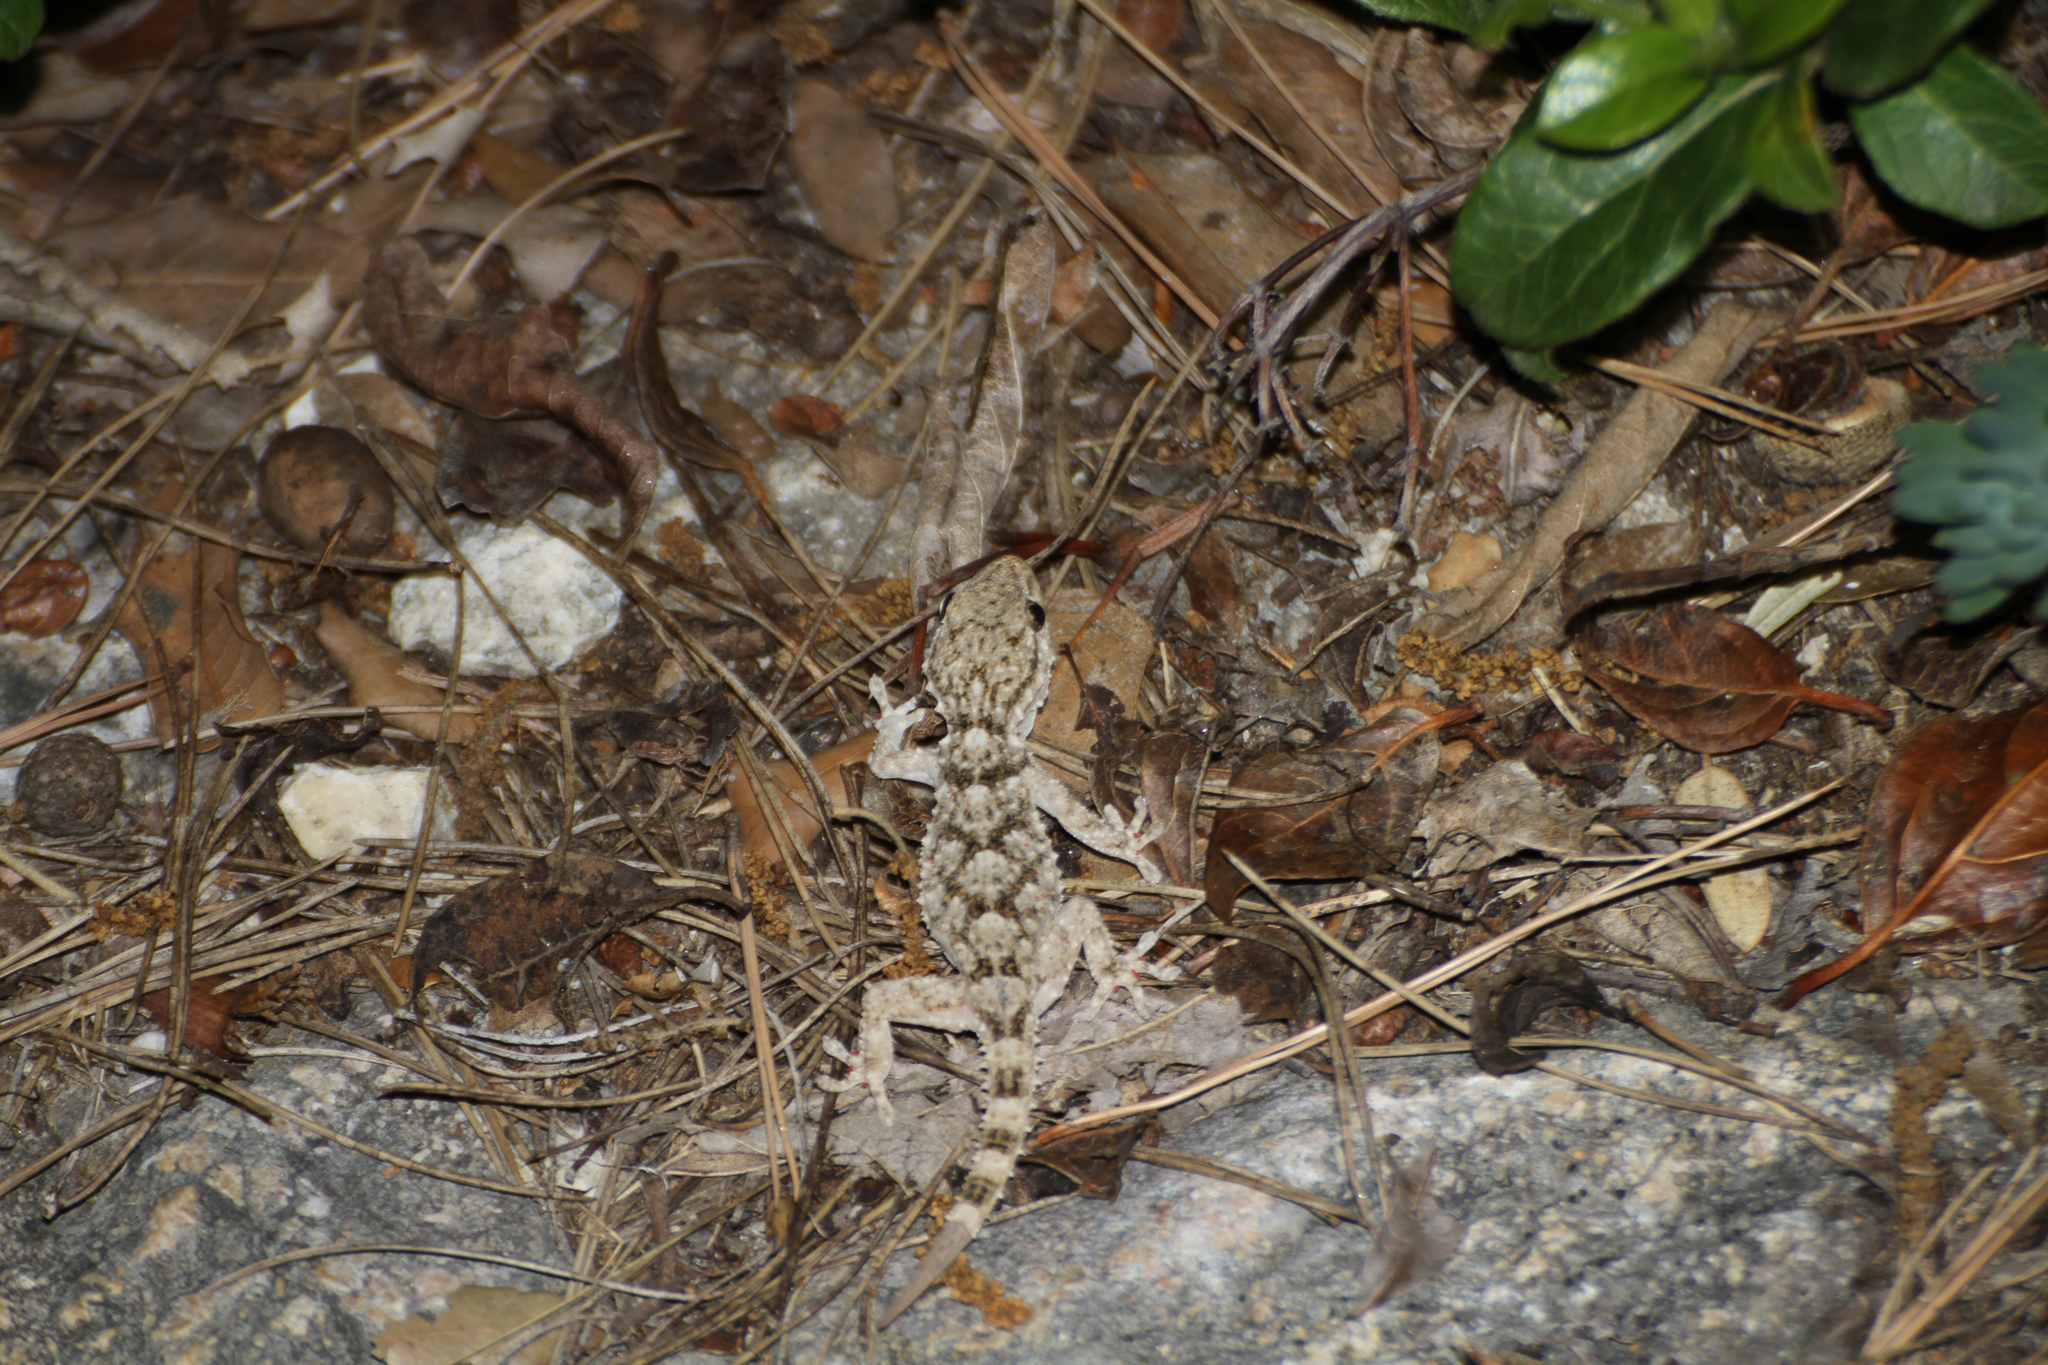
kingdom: Animalia
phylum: Chordata
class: Squamata
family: Phyllodactylidae
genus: Tarentola
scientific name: Tarentola mauritanica
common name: Moorish gecko
